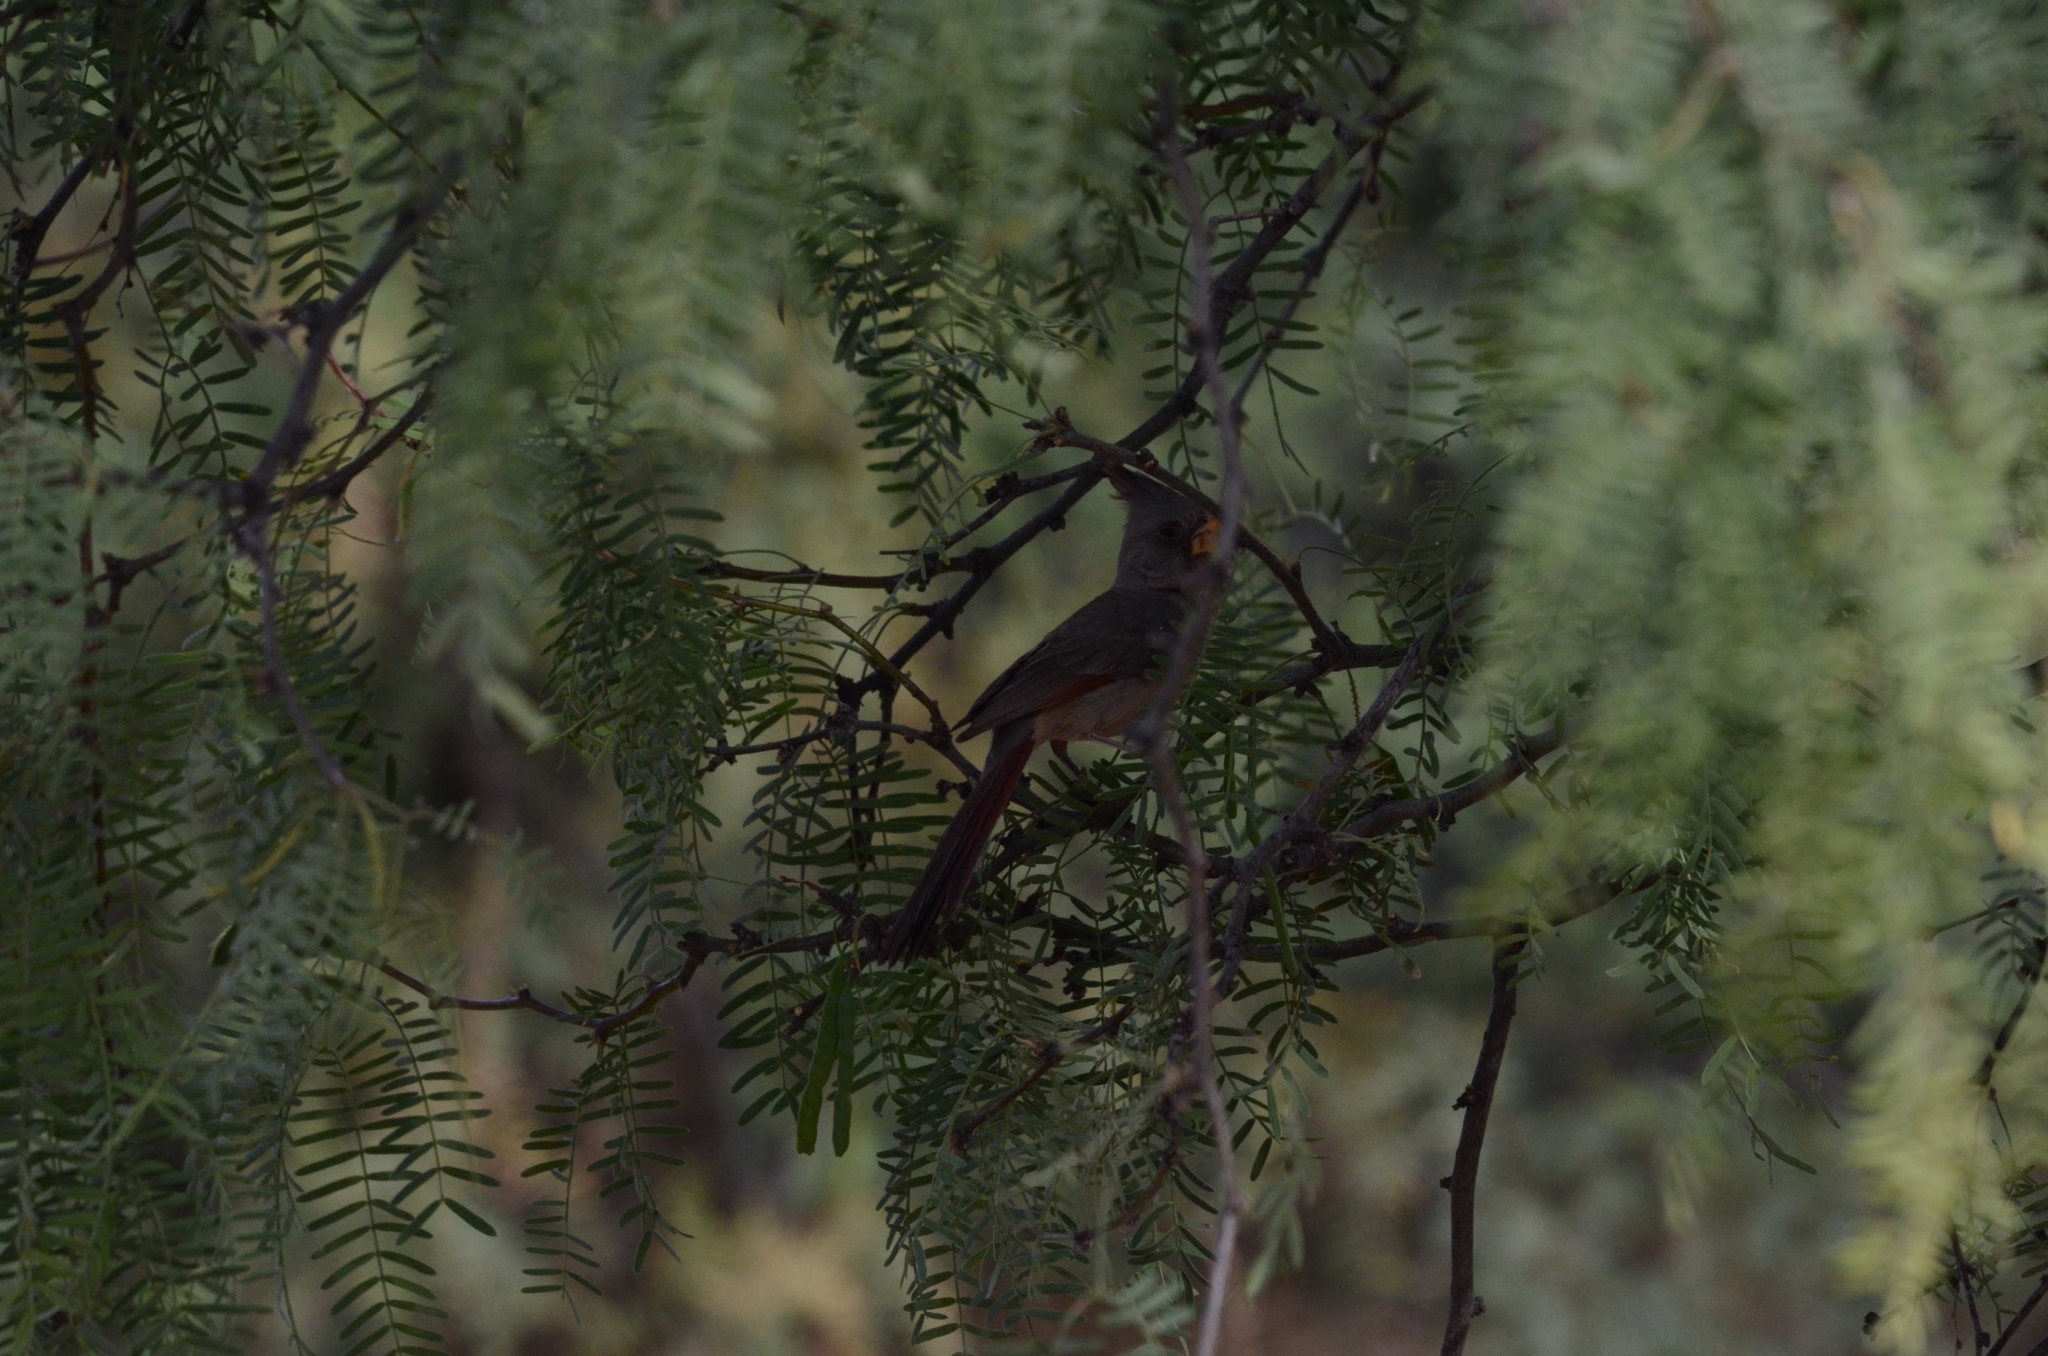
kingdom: Animalia
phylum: Chordata
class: Aves
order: Passeriformes
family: Cardinalidae
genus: Cardinalis
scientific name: Cardinalis sinuatus
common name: Pyrrhuloxia
